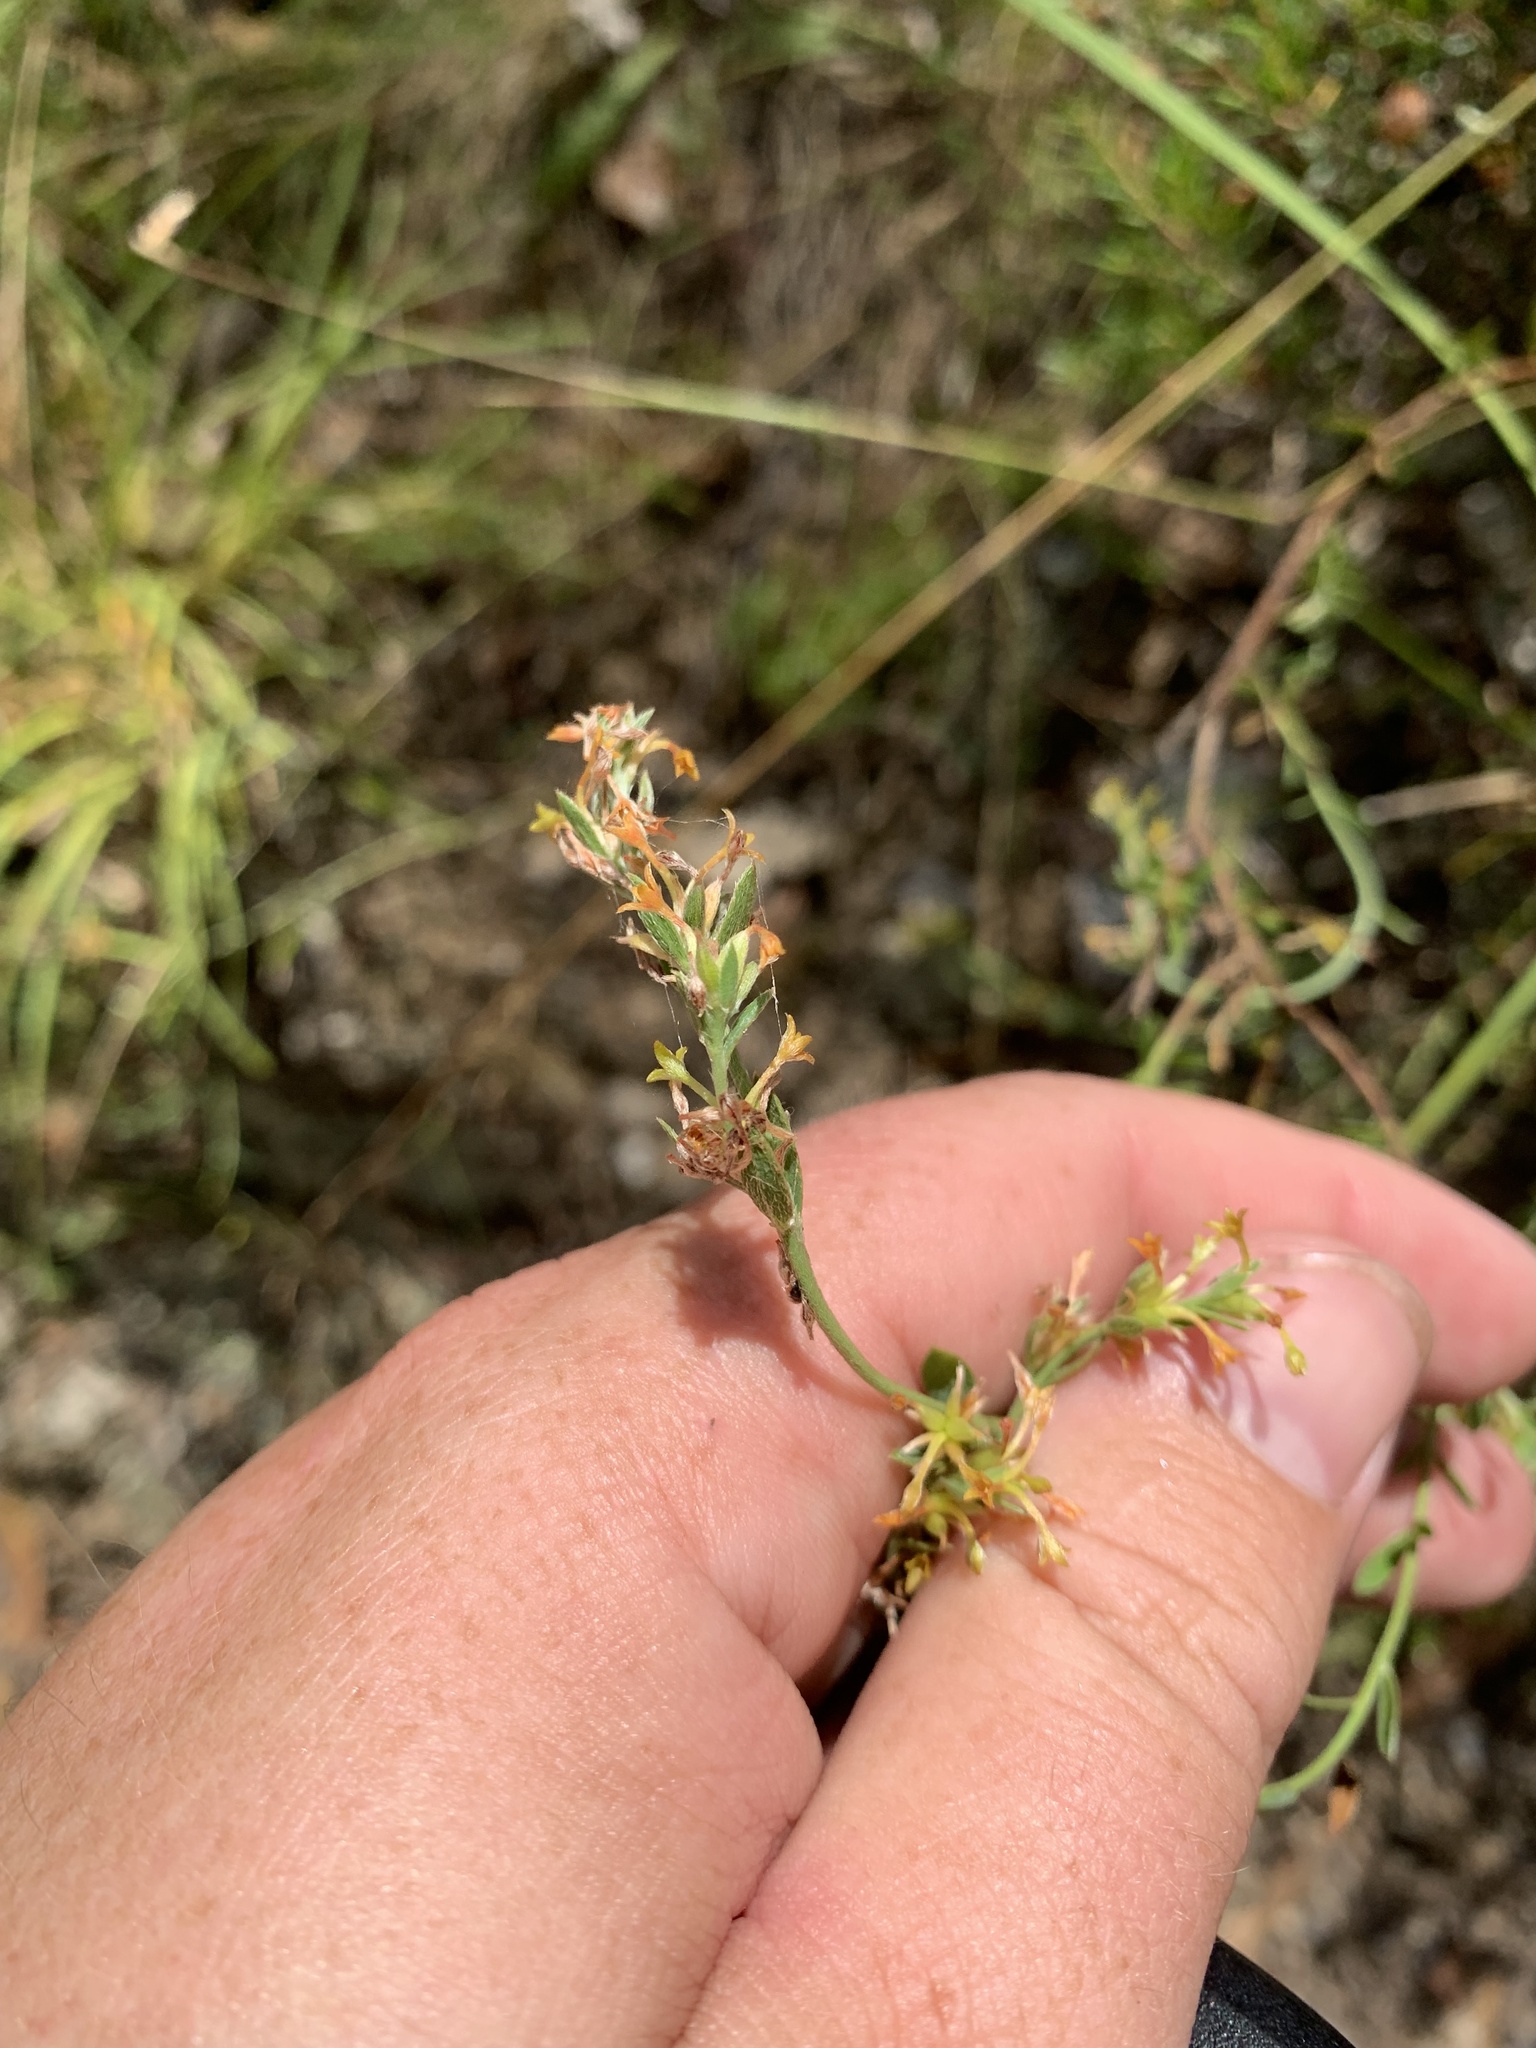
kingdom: Plantae
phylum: Tracheophyta
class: Magnoliopsida
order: Malvales
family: Thymelaeaceae
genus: Pimelea
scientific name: Pimelea curviflora
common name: Curved riceflower
